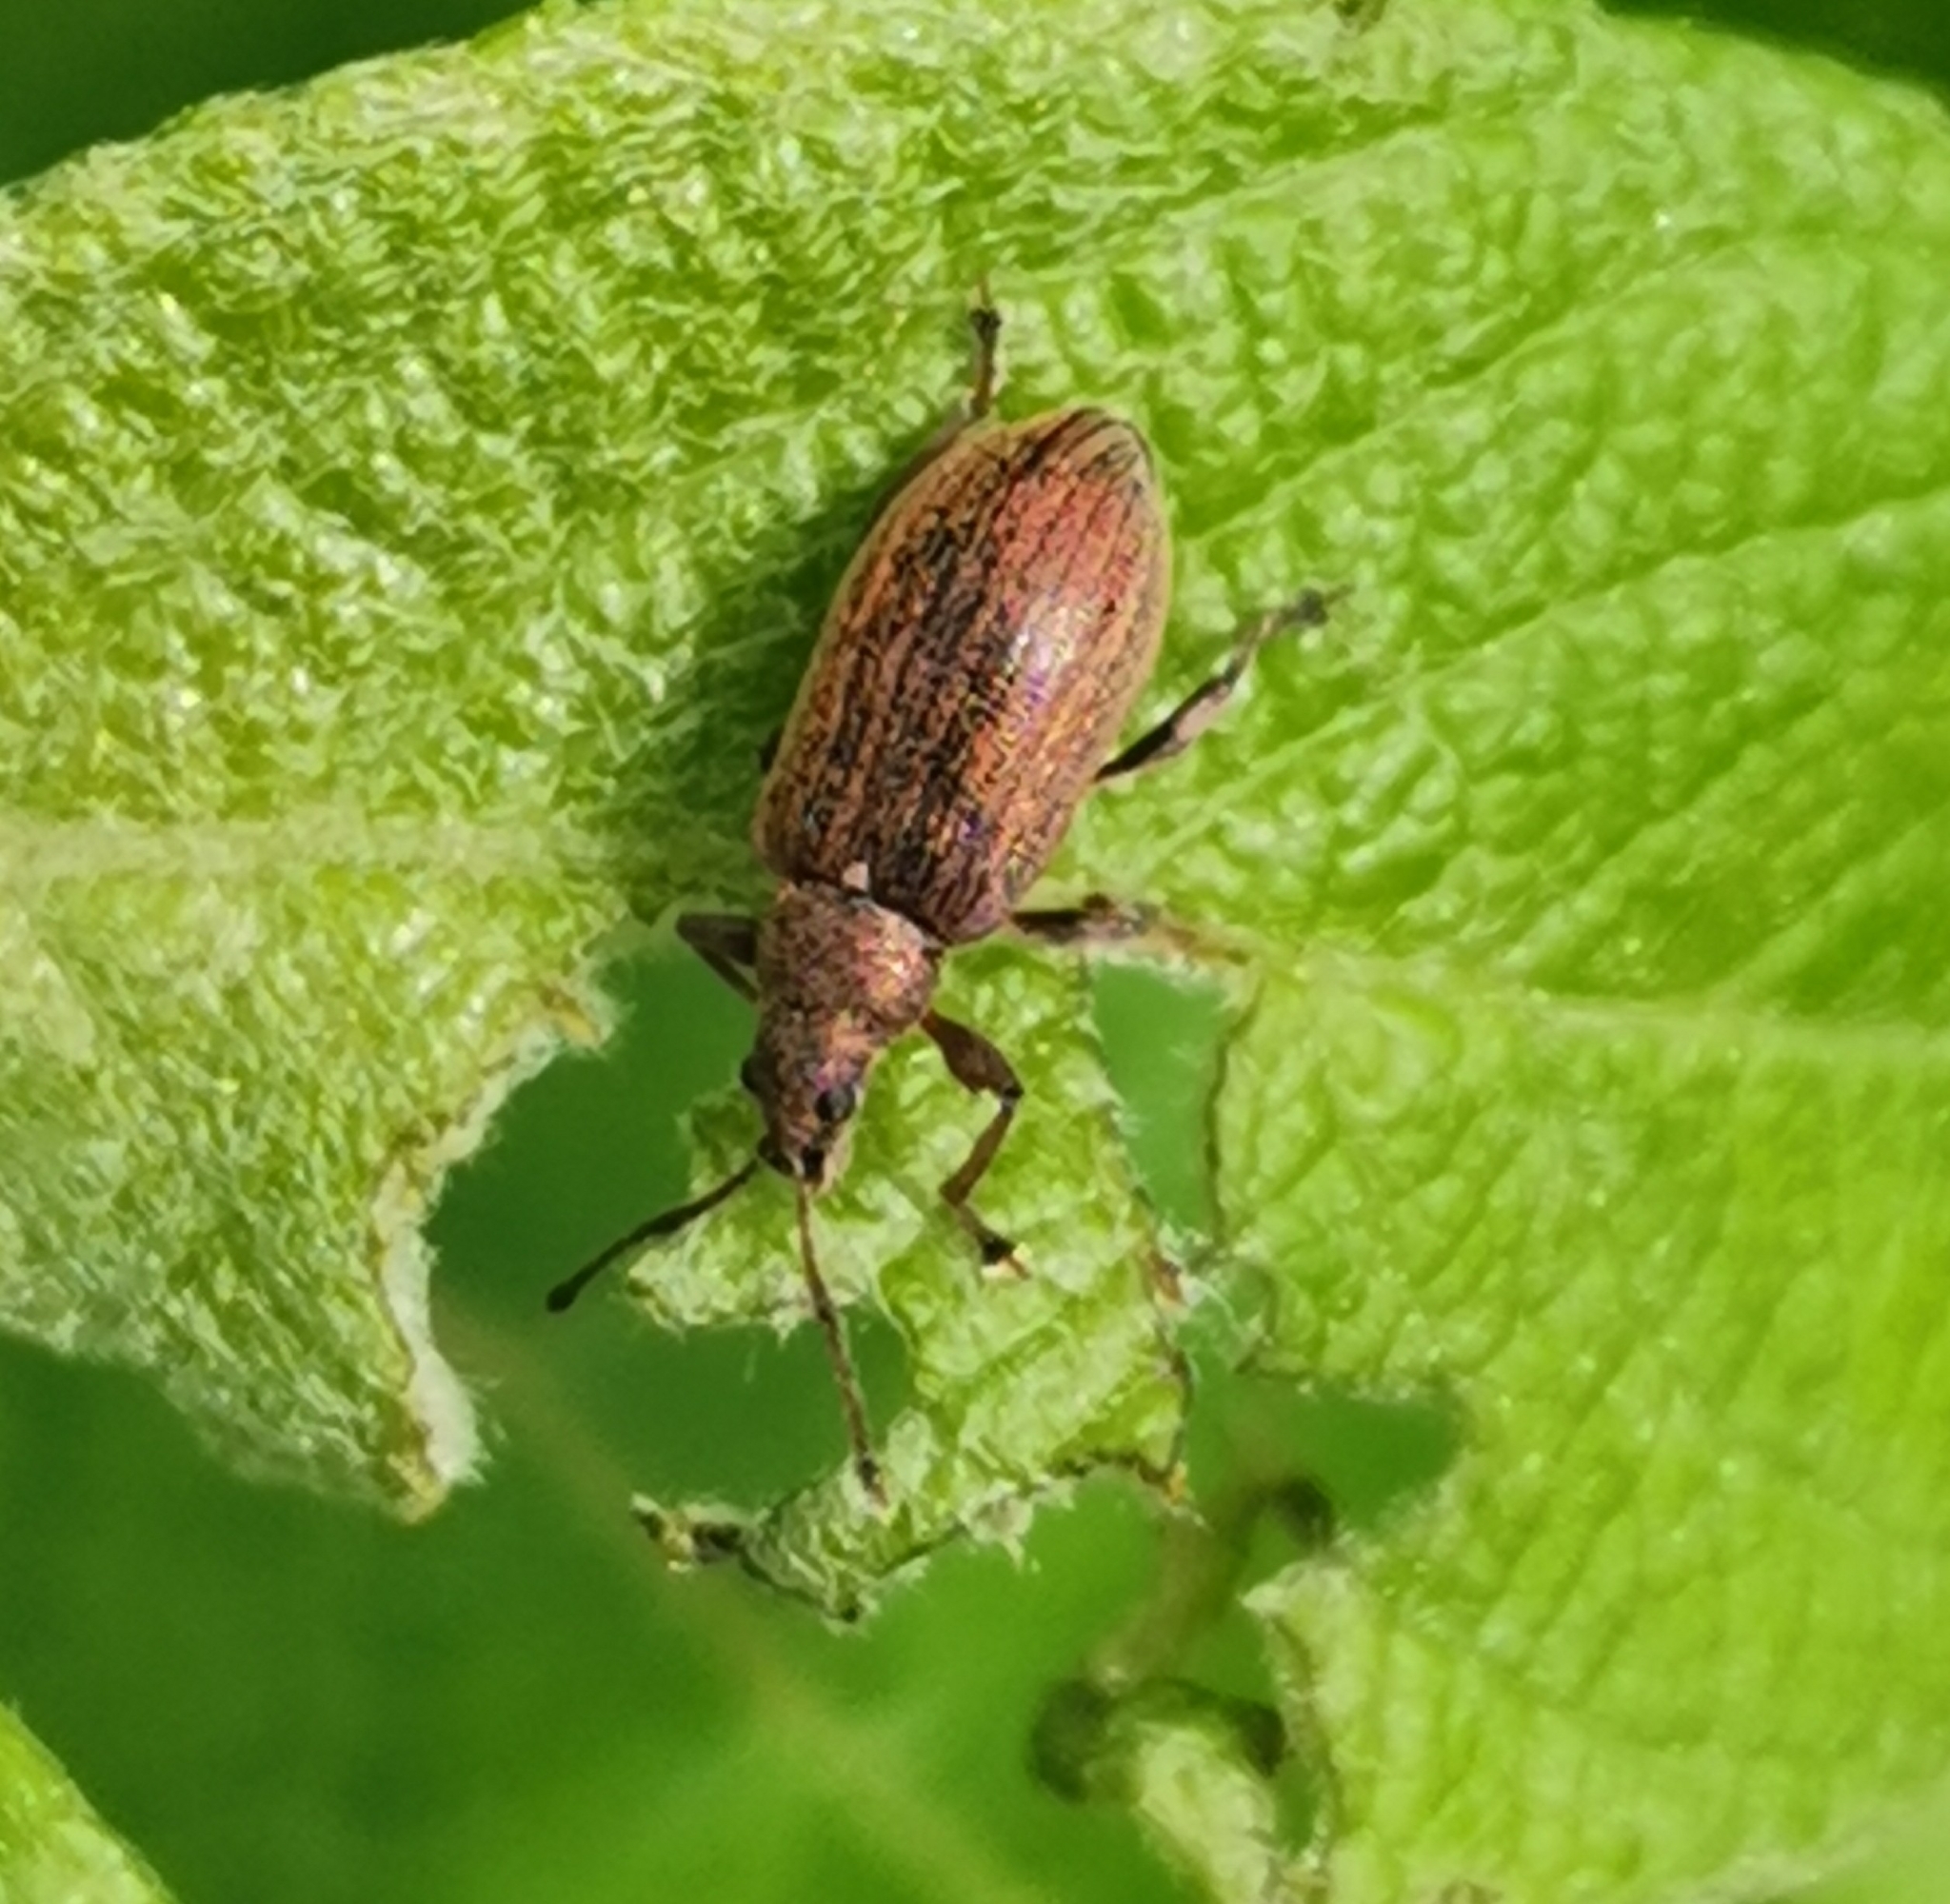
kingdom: Animalia
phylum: Arthropoda
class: Insecta
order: Coleoptera
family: Curculionidae
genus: Phyllobius
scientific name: Phyllobius pyri
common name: Common leaf weevil
